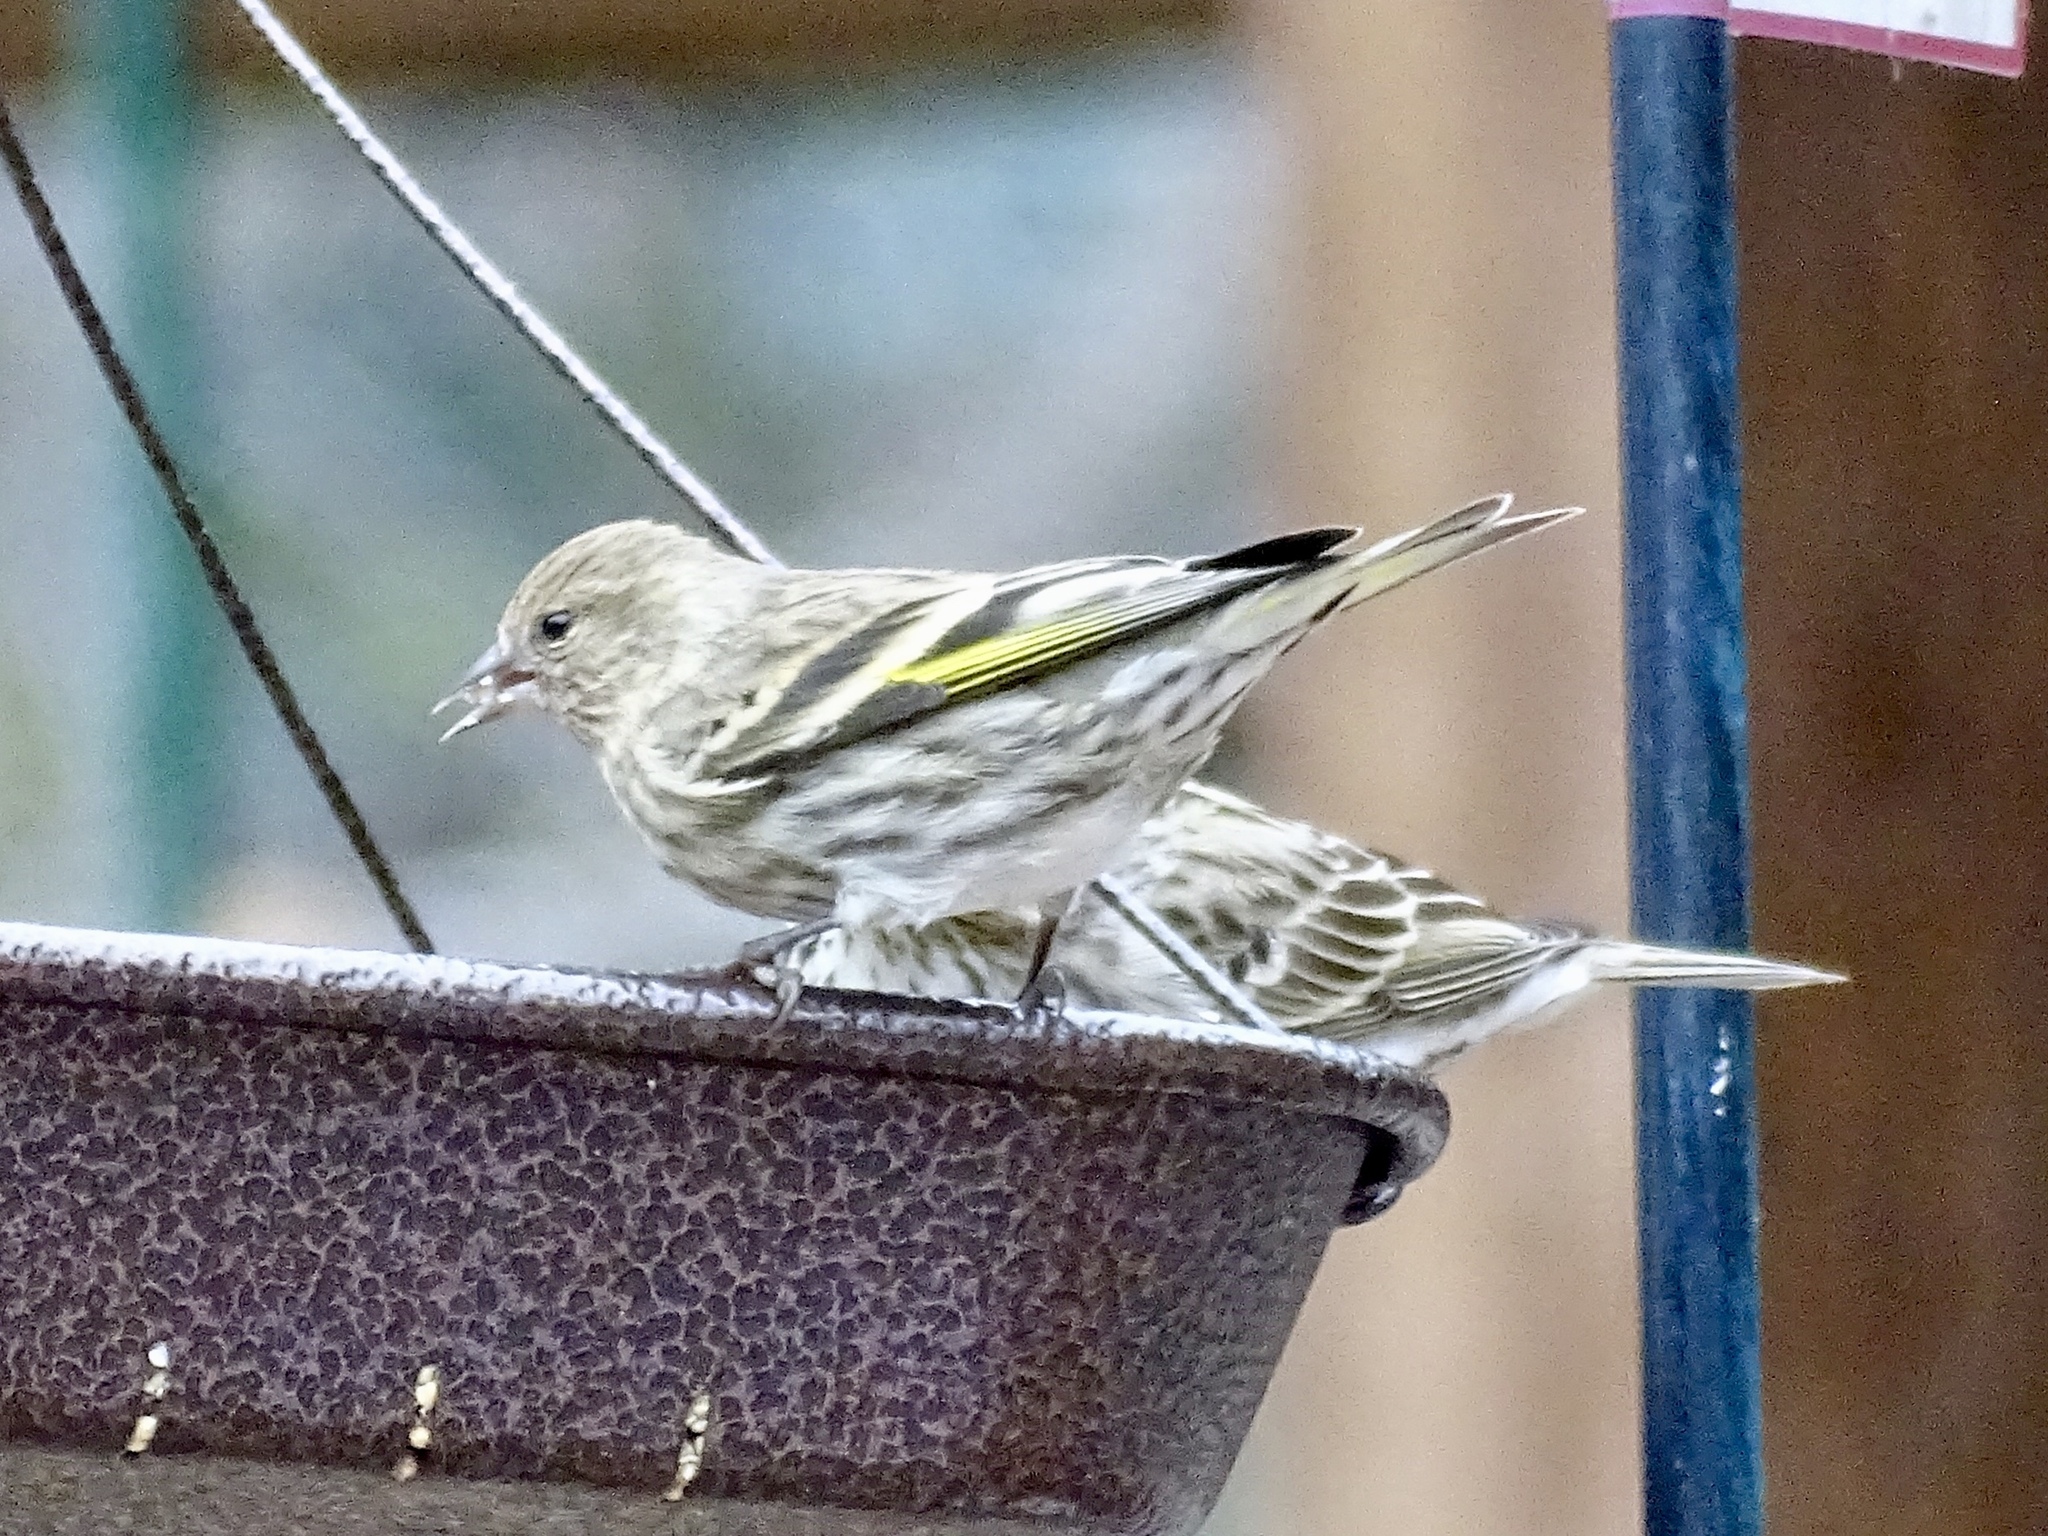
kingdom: Animalia
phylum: Chordata
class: Aves
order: Passeriformes
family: Fringillidae
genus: Spinus
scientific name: Spinus pinus
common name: Pine siskin
